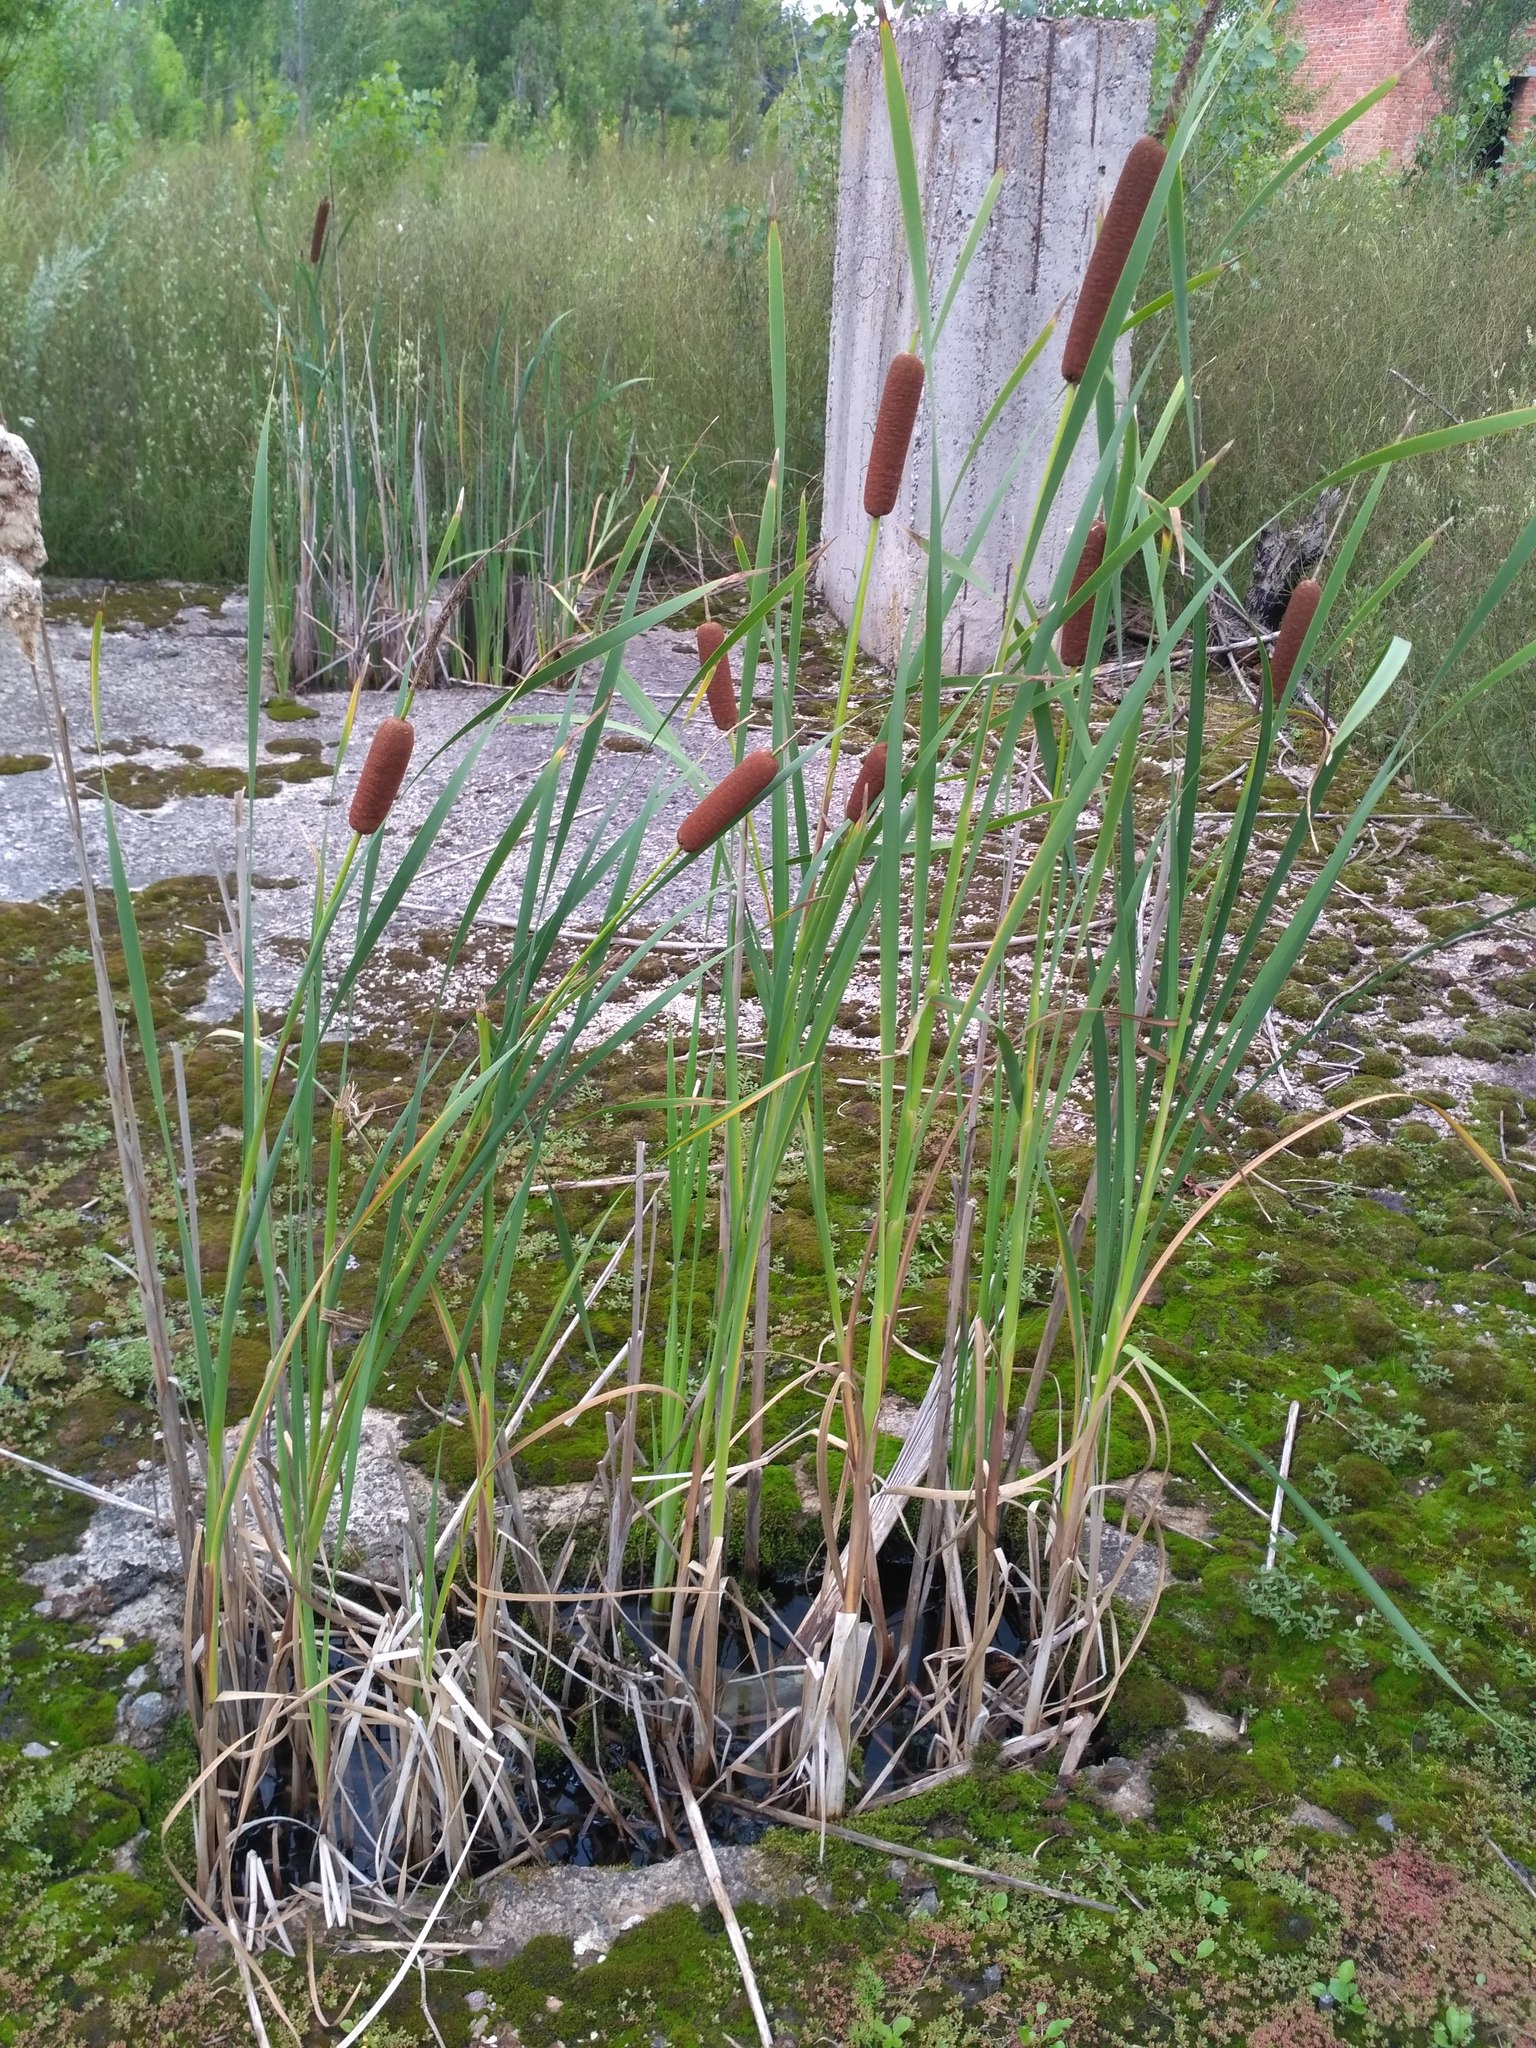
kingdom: Plantae
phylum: Tracheophyta
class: Liliopsida
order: Poales
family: Typhaceae
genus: Typha
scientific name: Typha latifolia
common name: Broadleaf cattail
